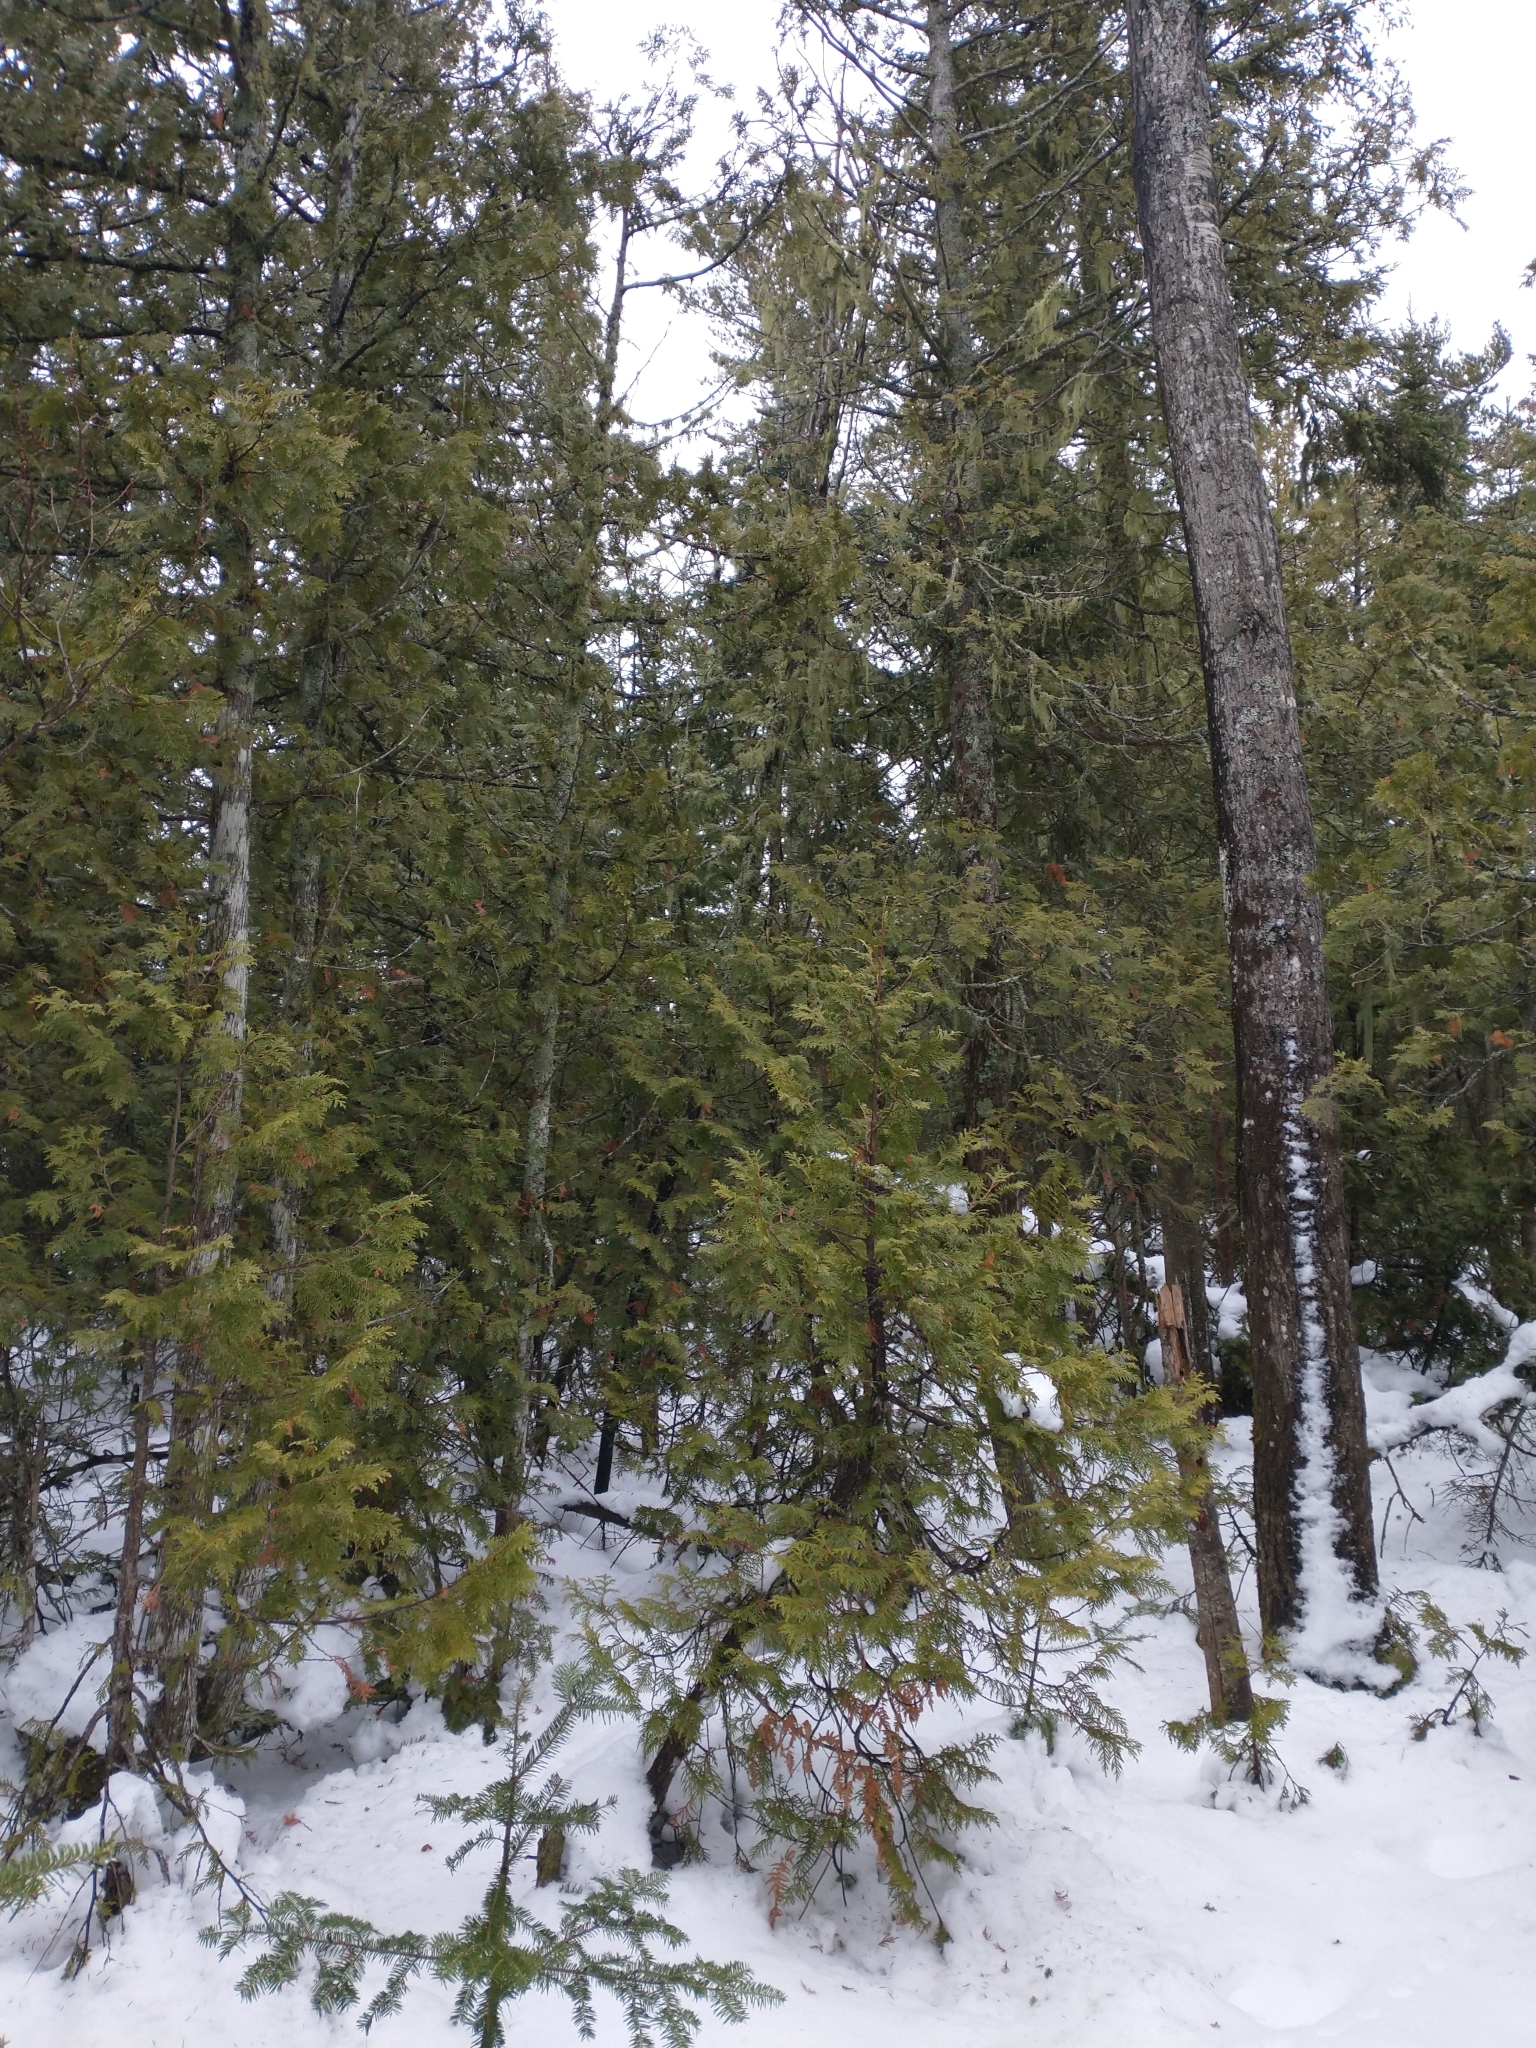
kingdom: Plantae
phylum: Tracheophyta
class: Pinopsida
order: Pinales
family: Cupressaceae
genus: Thuja
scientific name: Thuja occidentalis
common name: Northern white-cedar
